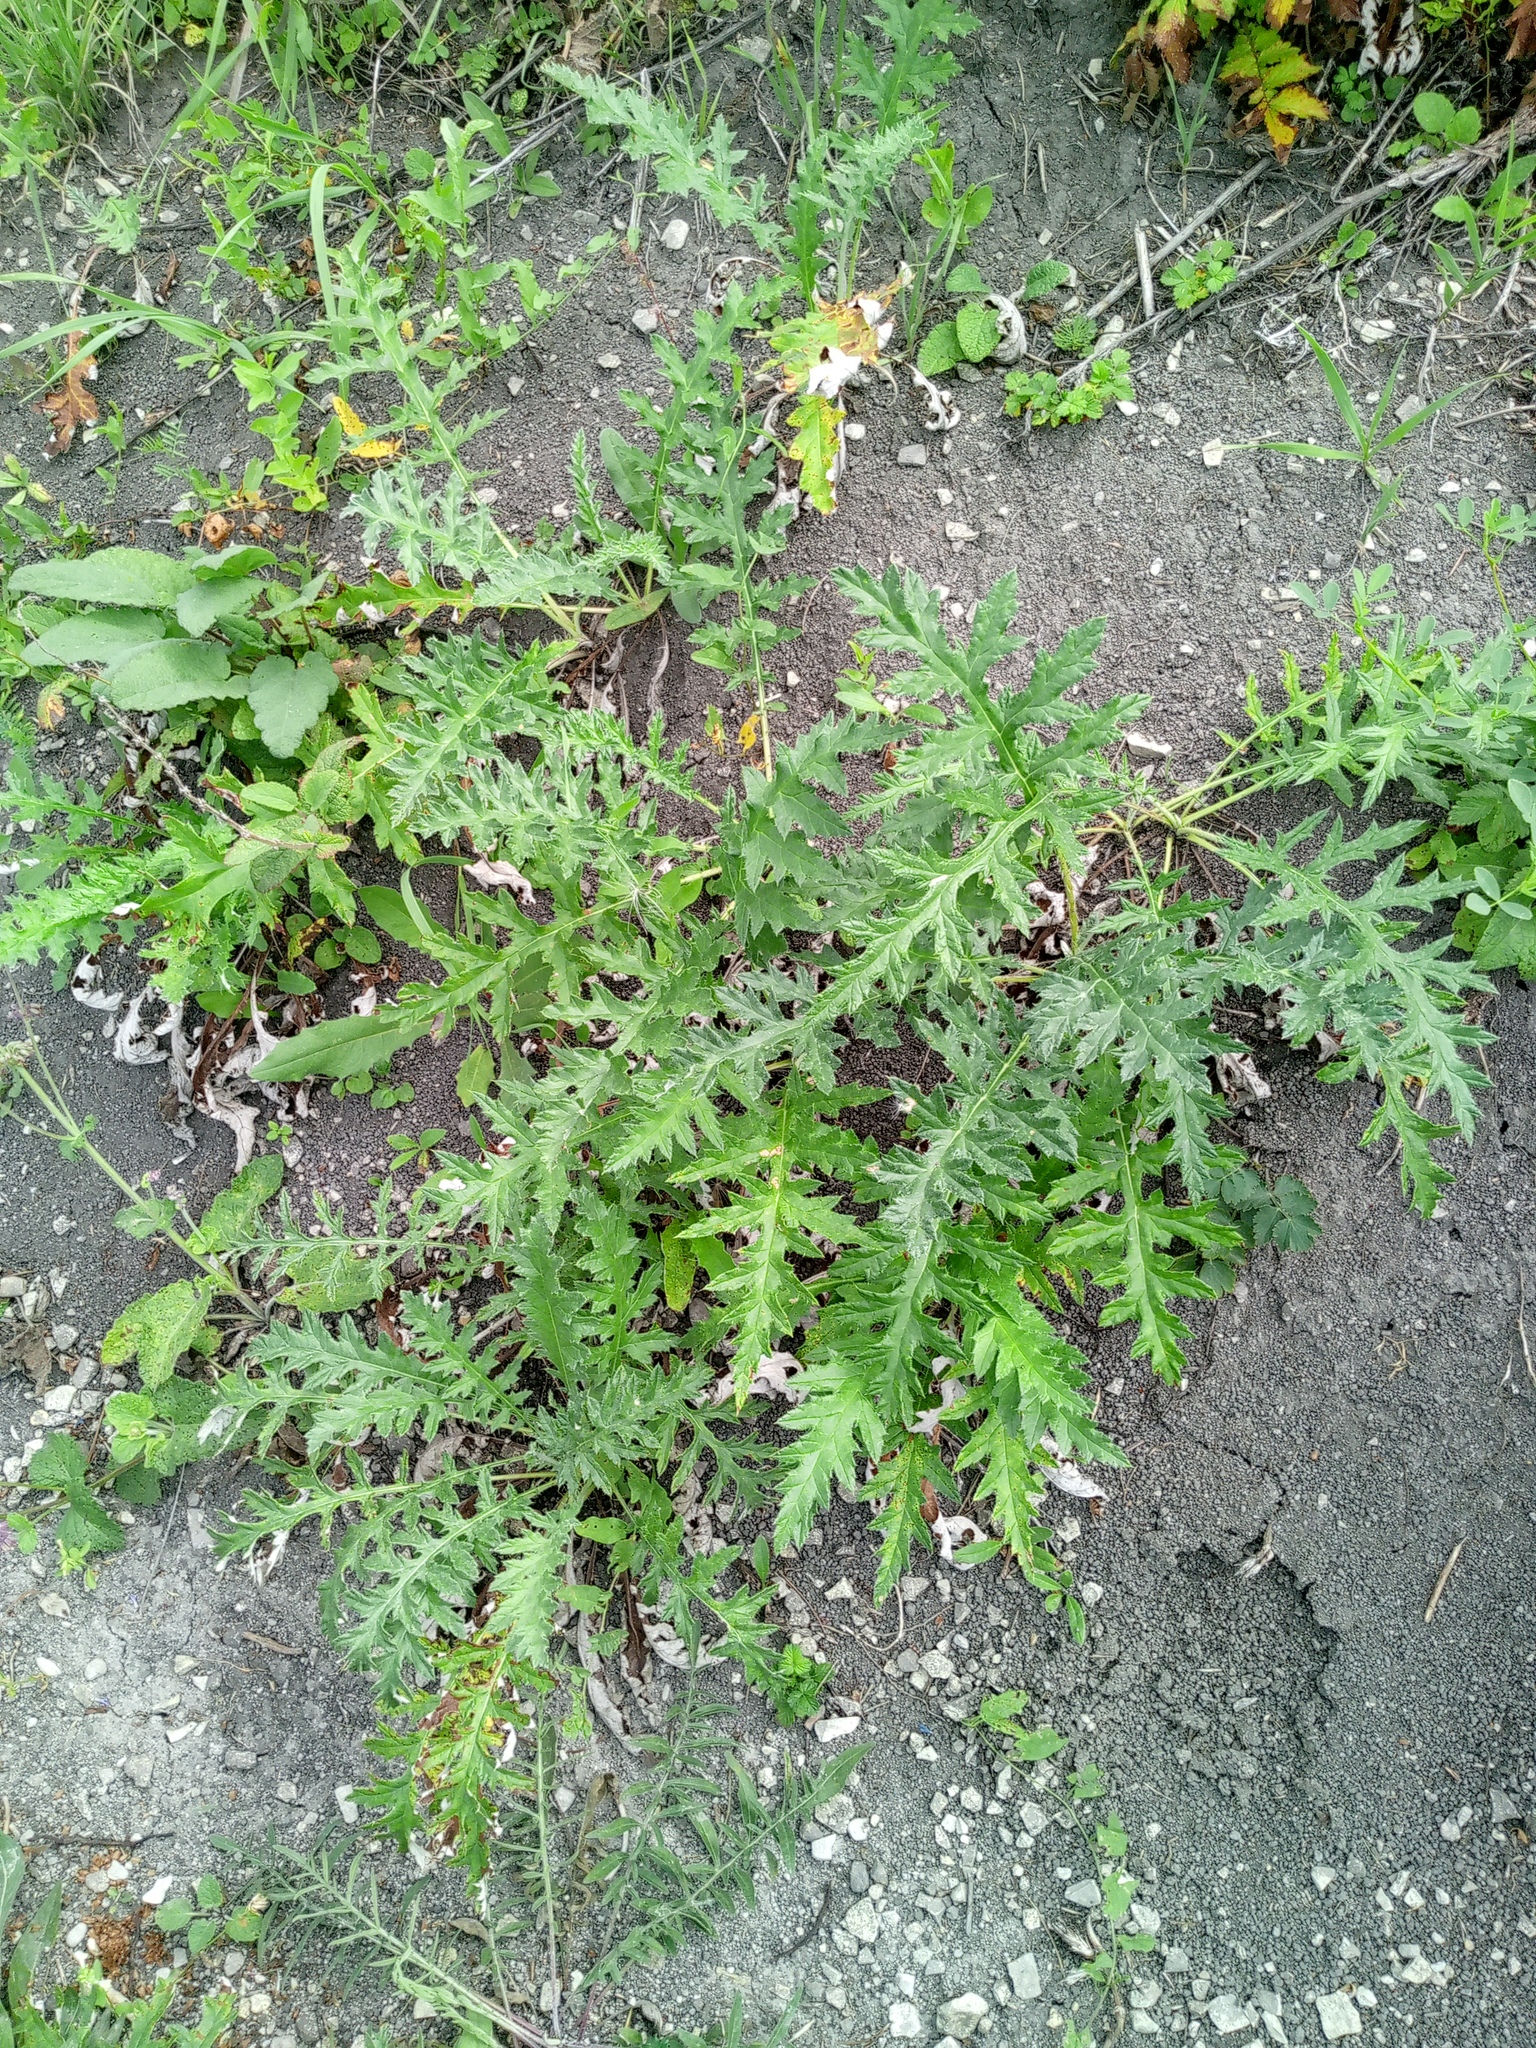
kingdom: Plantae
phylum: Tracheophyta
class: Magnoliopsida
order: Asterales
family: Asteraceae
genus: Echinops
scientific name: Echinops ritro
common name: Globe thistle
